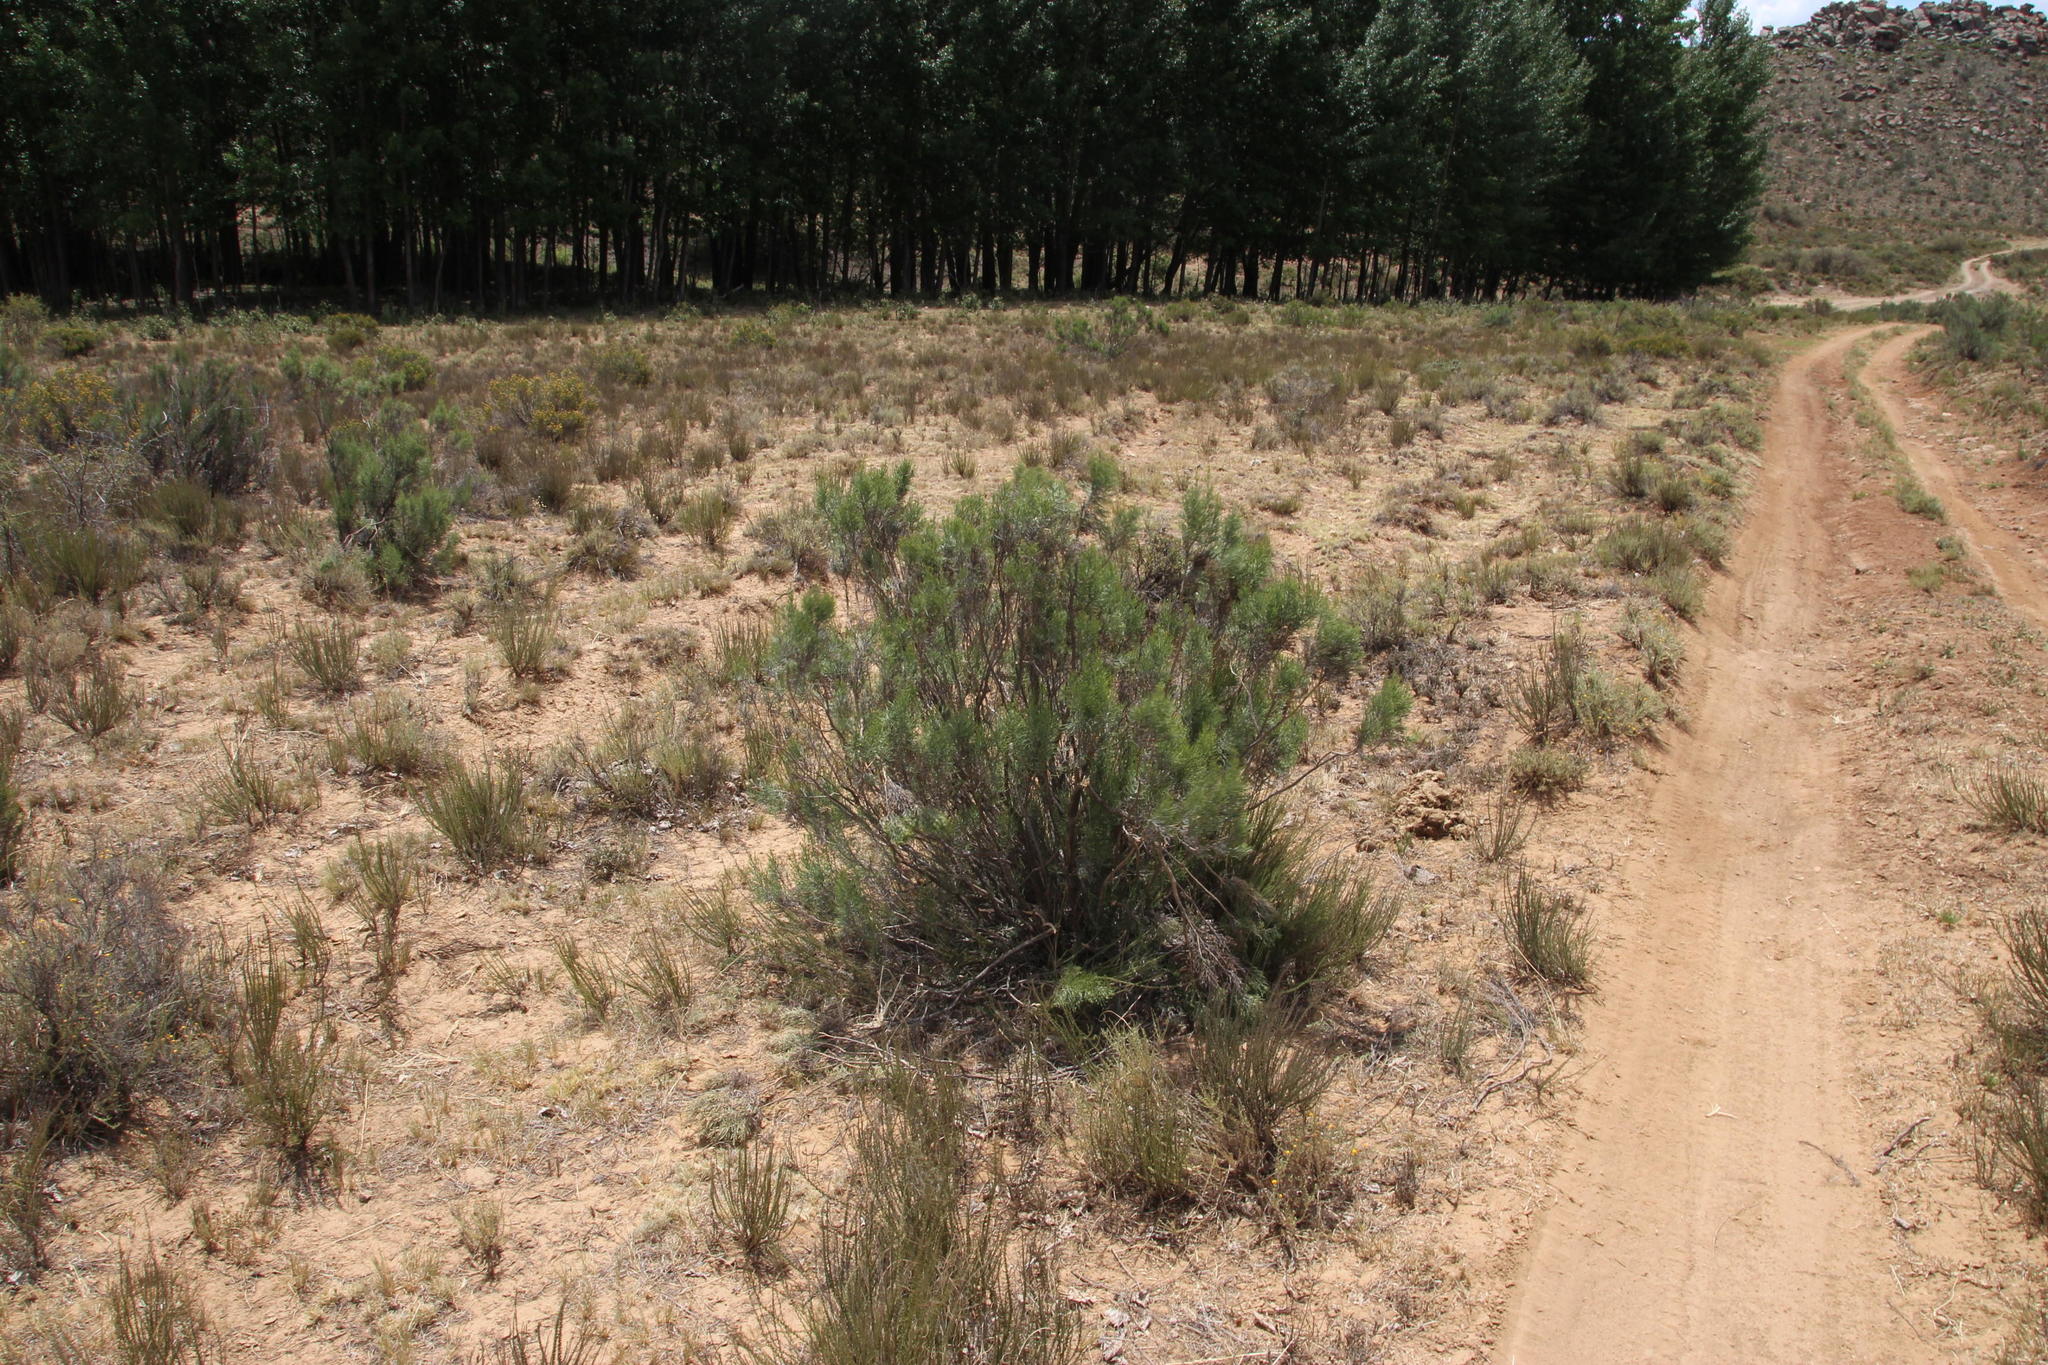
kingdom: Plantae
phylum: Tracheophyta
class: Magnoliopsida
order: Asterales
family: Asteraceae
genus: Dicerothamnus
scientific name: Dicerothamnus rhinocerotis
